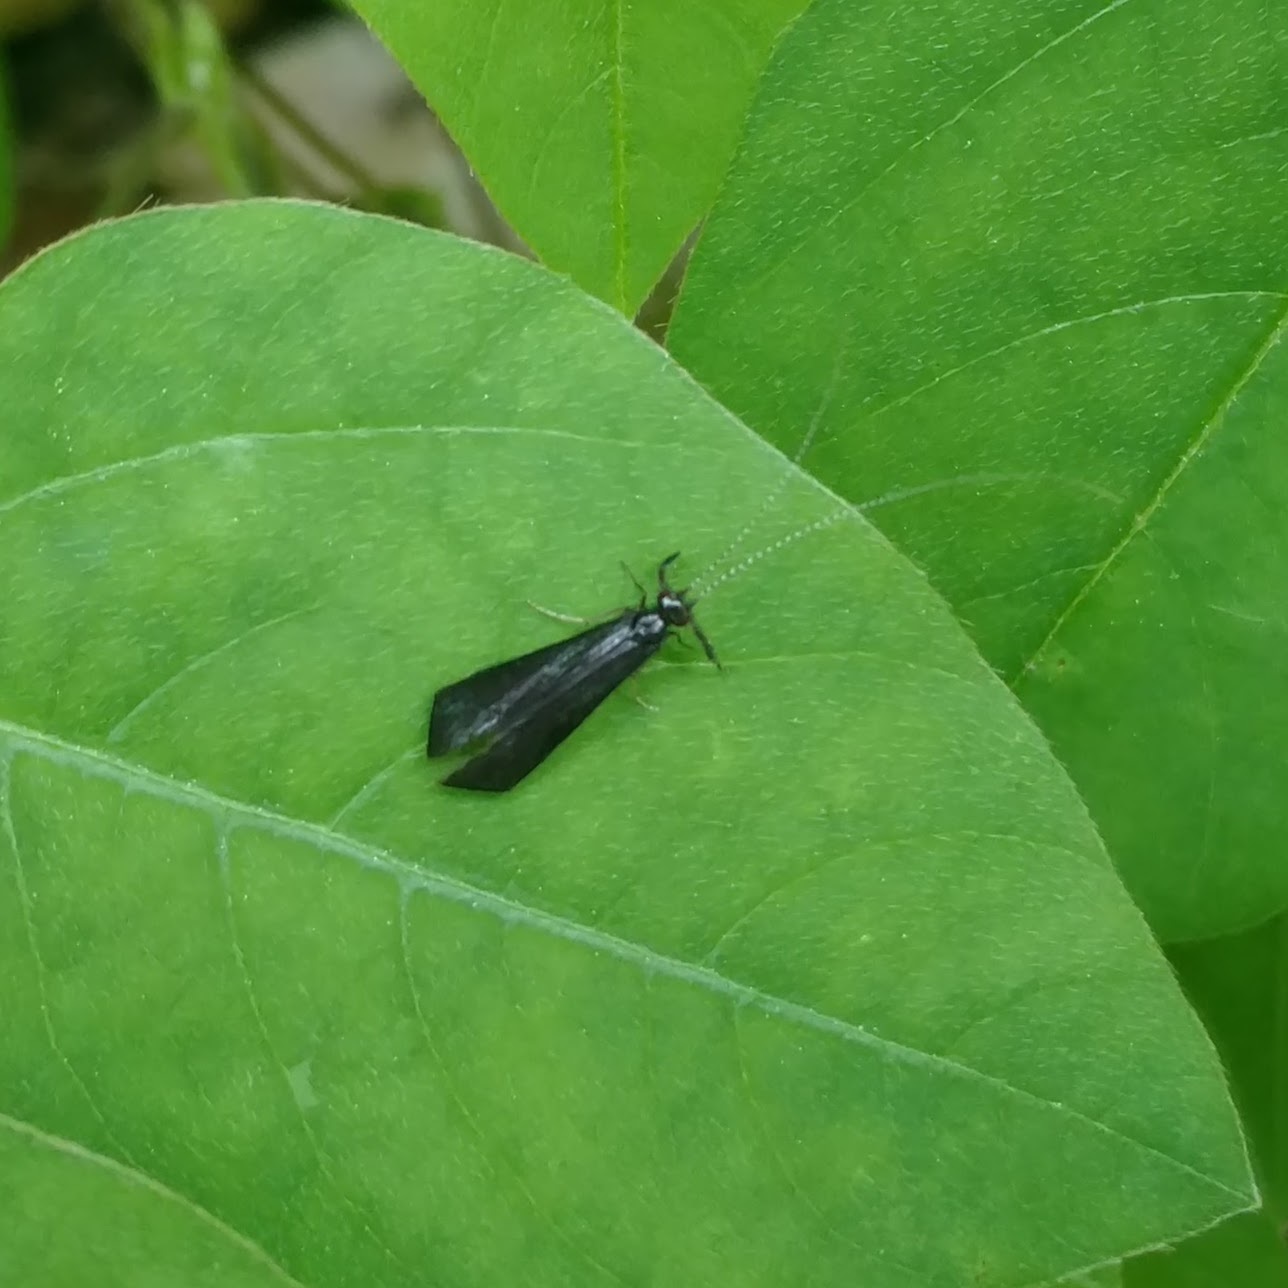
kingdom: Animalia
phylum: Arthropoda
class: Insecta
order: Trichoptera
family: Leptoceridae
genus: Mystacides
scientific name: Mystacides sepulchralis
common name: Black dancer caddisfly
